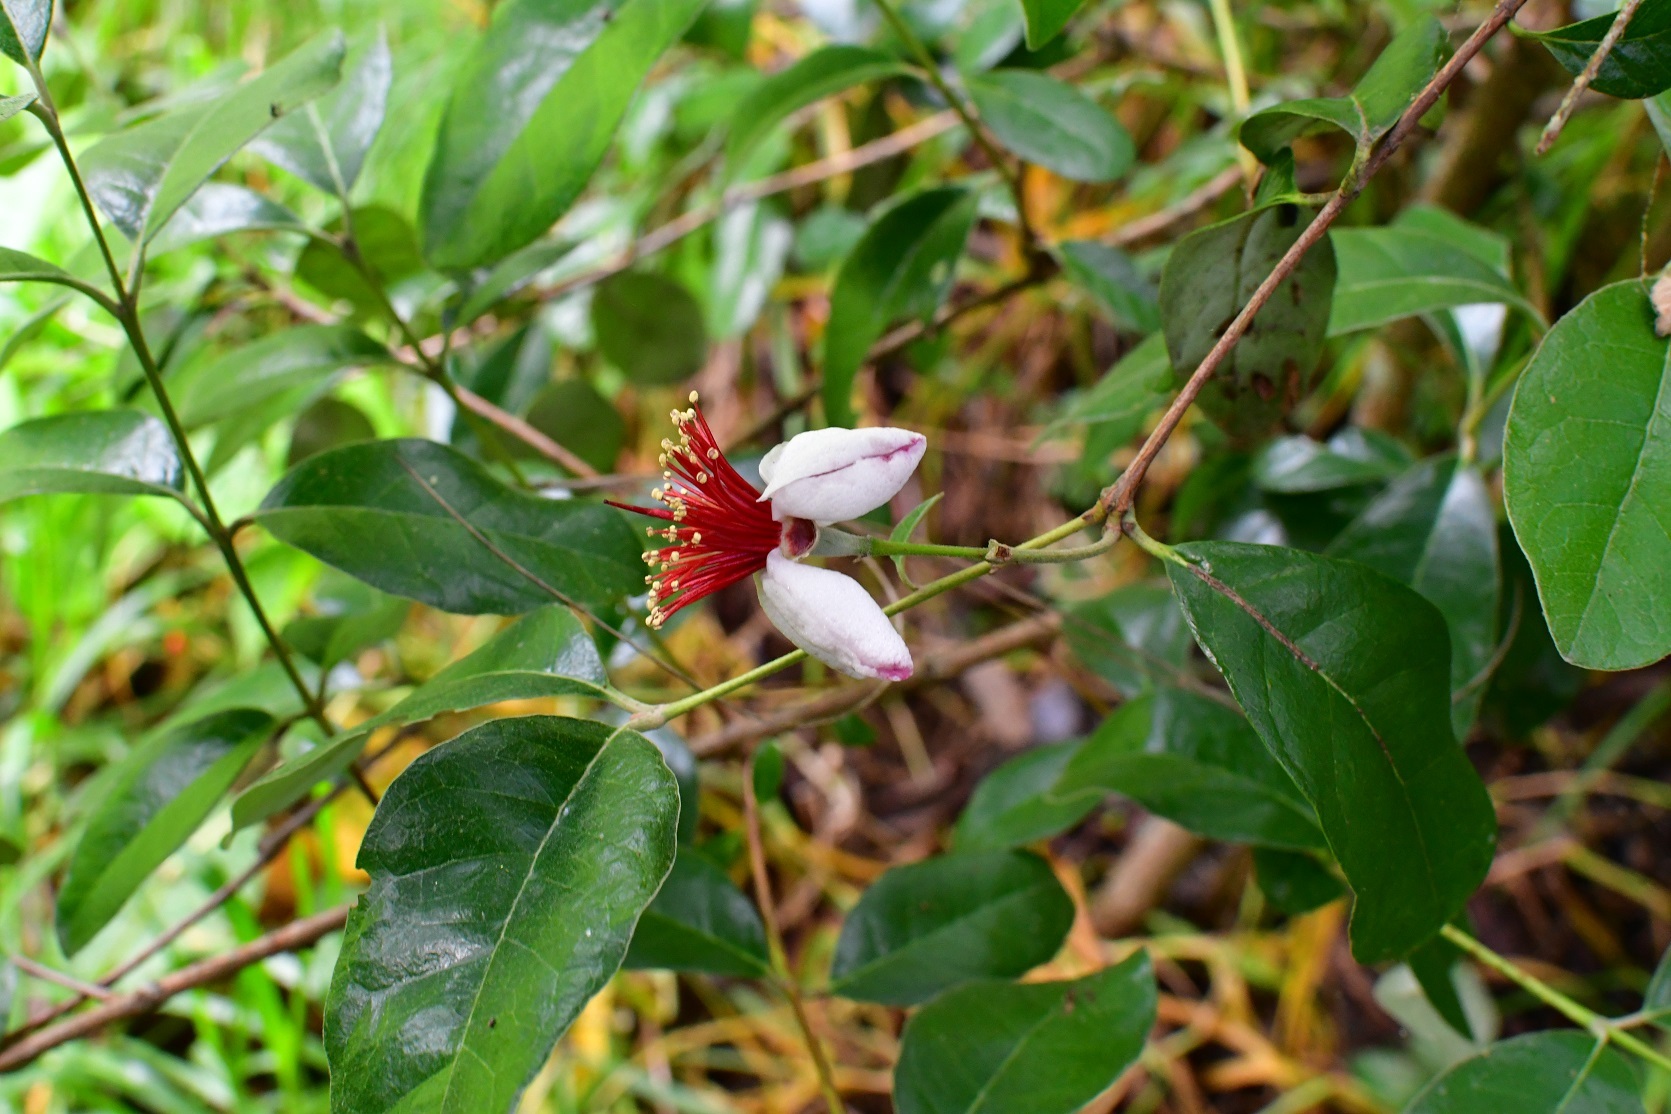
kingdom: Plantae
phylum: Tracheophyta
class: Magnoliopsida
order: Myrtales
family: Myrtaceae
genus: Feijoa
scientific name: Feijoa sellowiana
